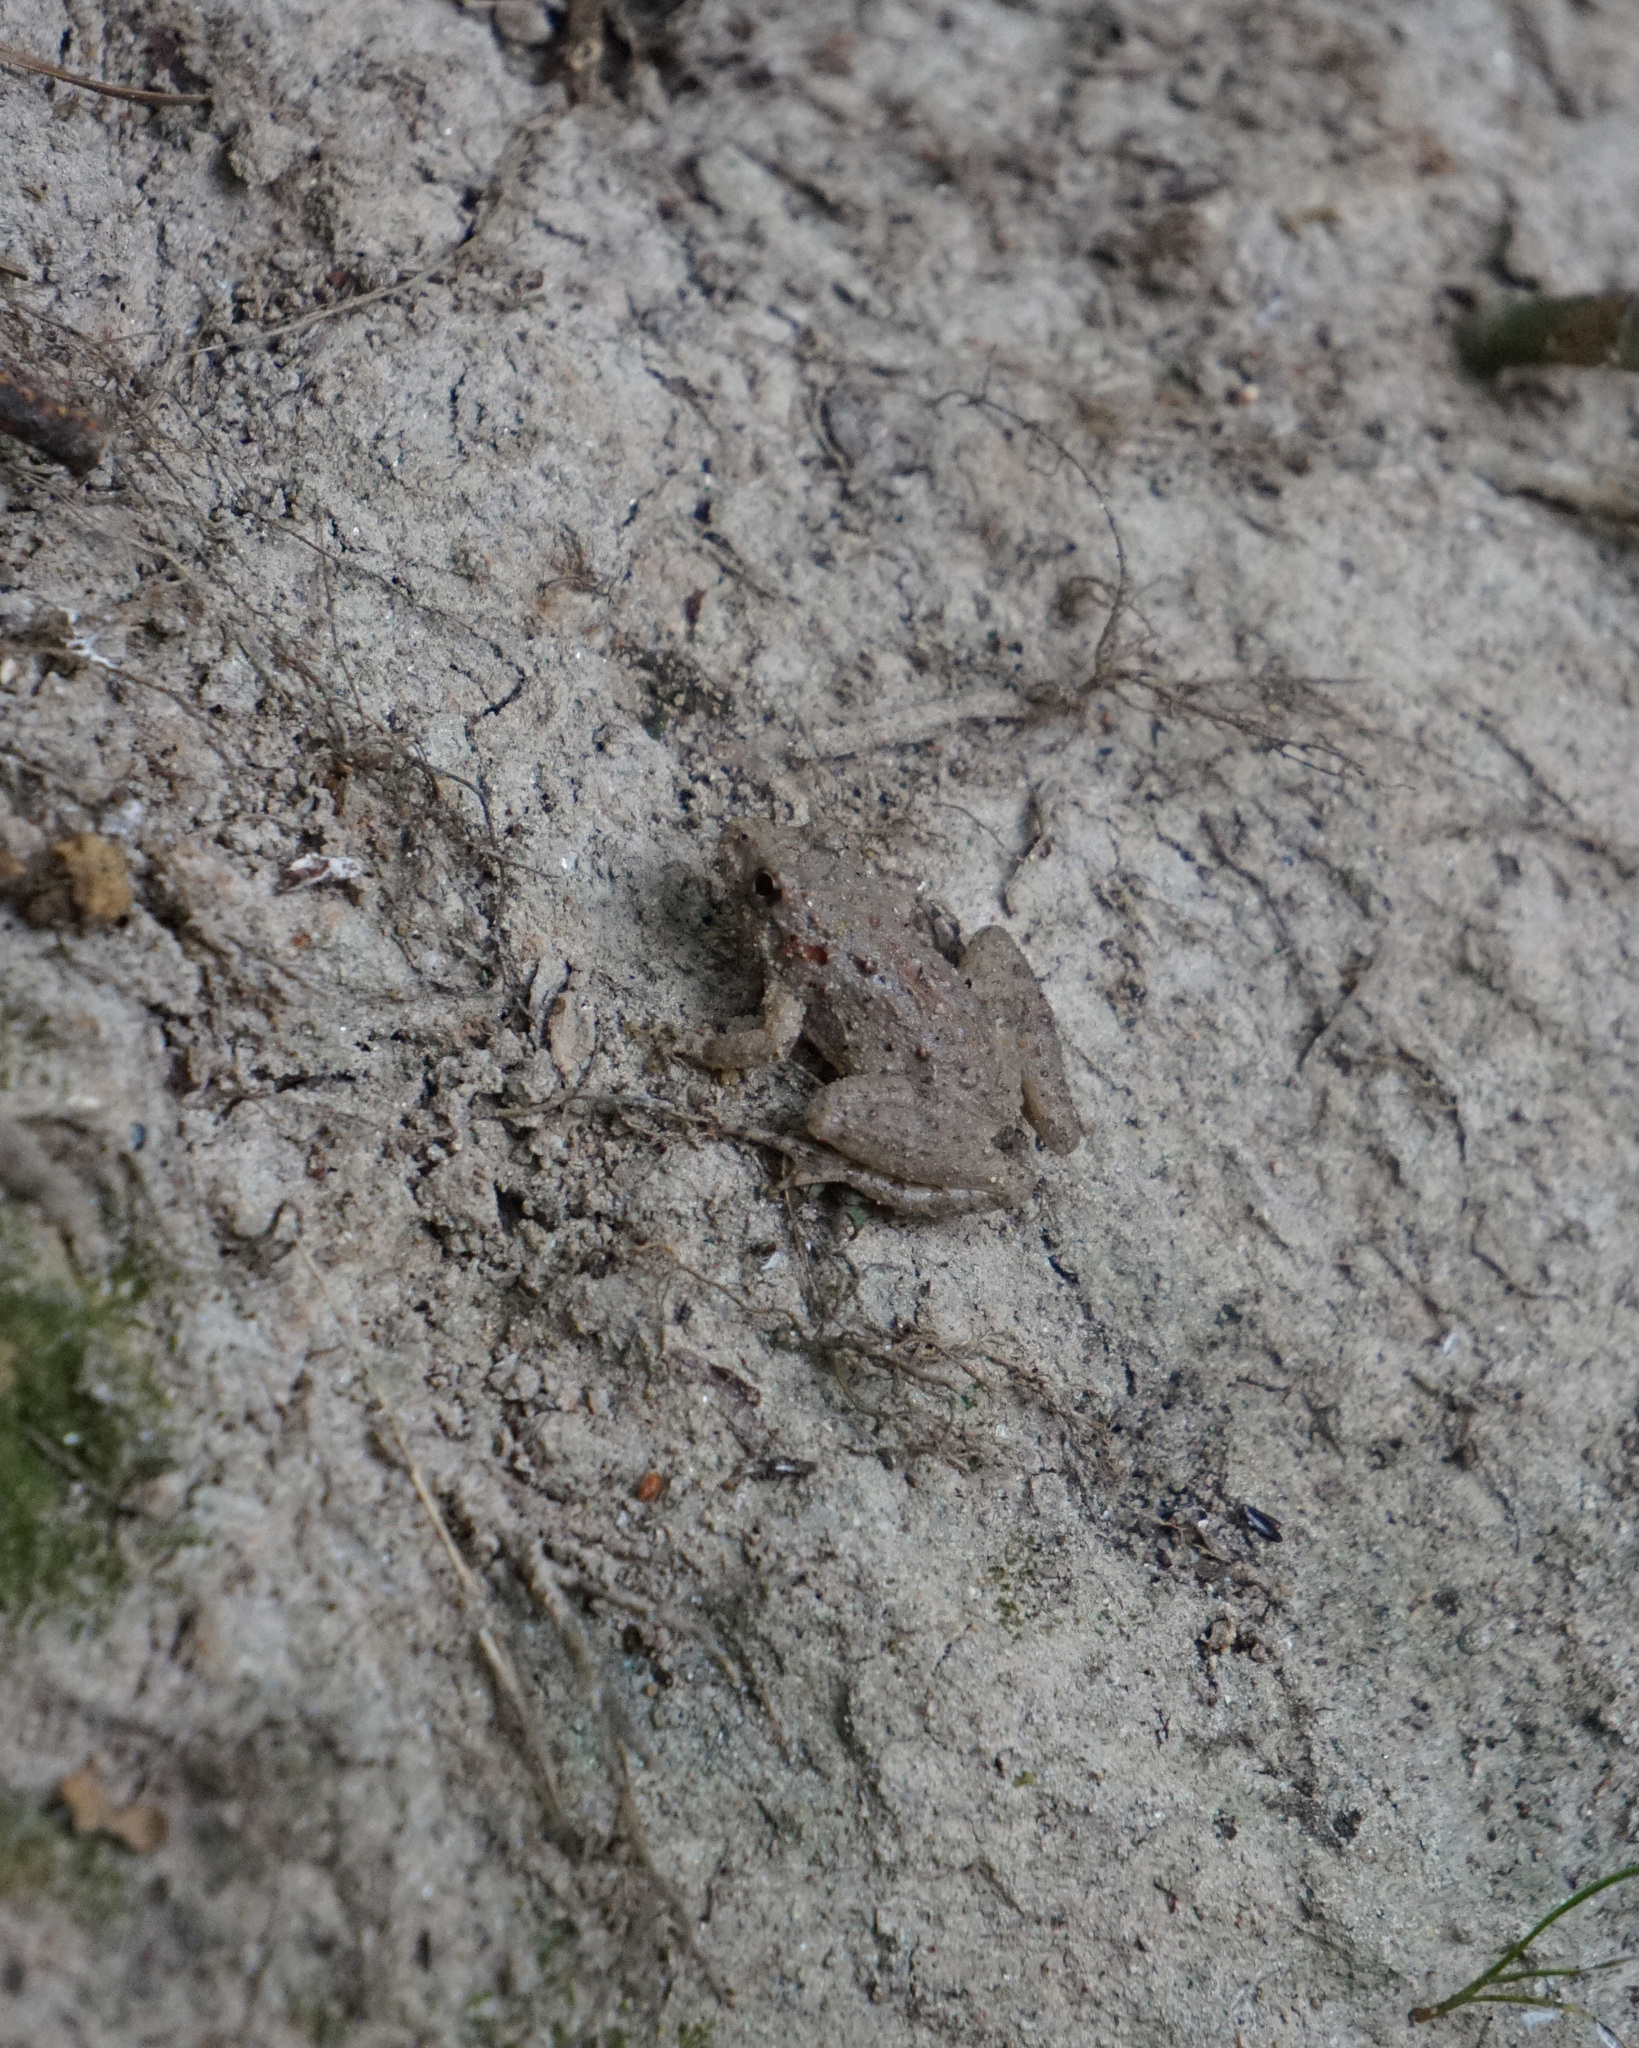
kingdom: Animalia
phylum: Chordata
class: Amphibia
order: Anura
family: Hylidae
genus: Acris
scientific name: Acris crepitans
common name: Northern cricket frog
